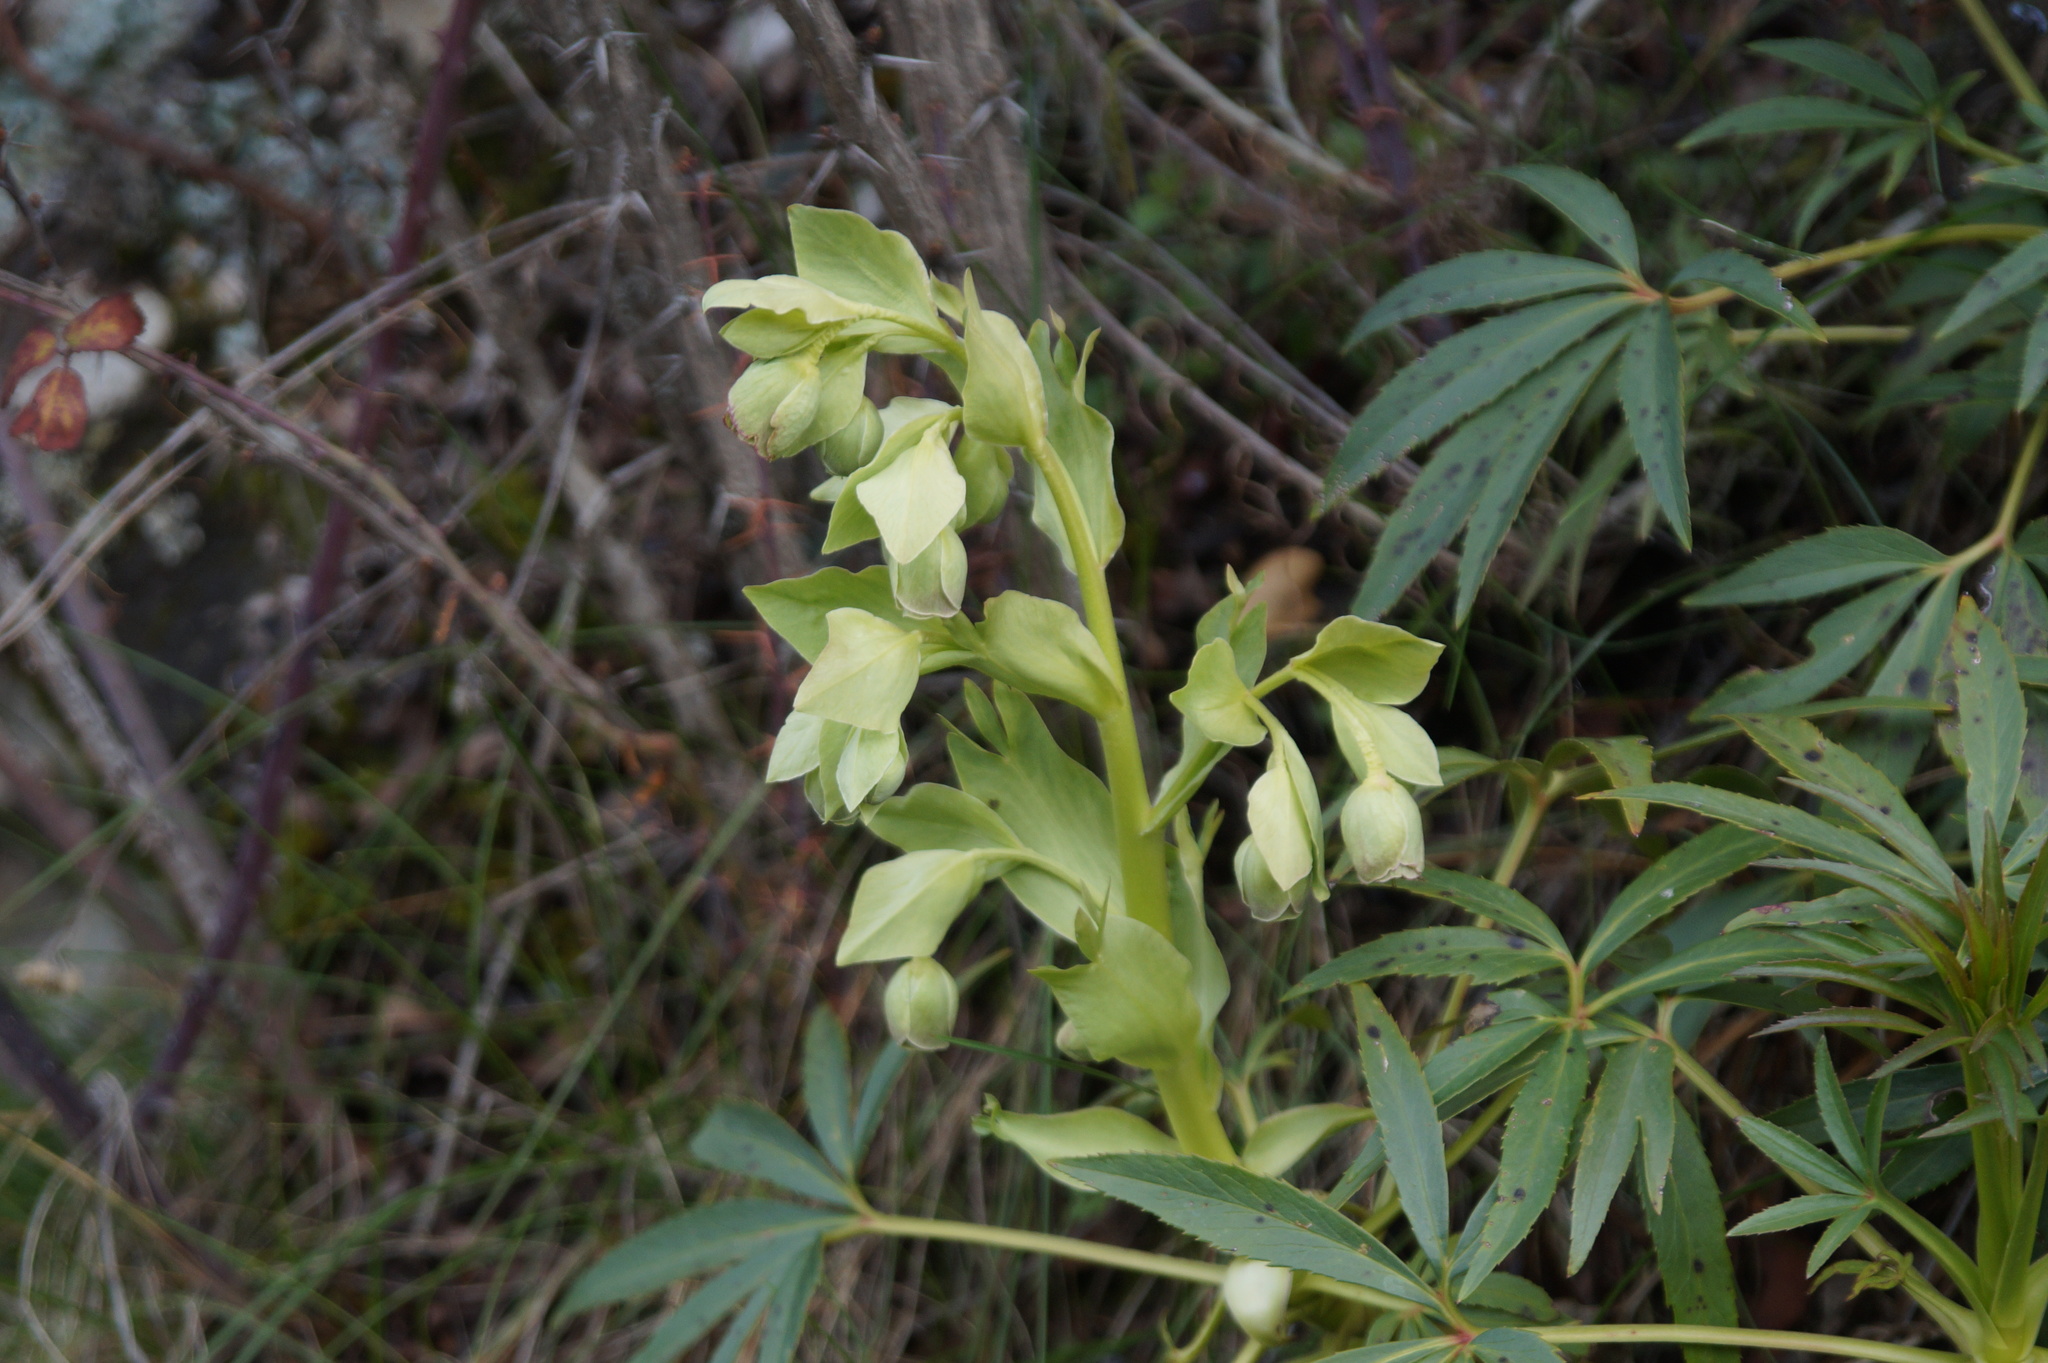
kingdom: Plantae
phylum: Tracheophyta
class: Magnoliopsida
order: Ranunculales
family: Ranunculaceae
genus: Helleborus
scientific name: Helleborus foetidus
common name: Stinking hellebore
